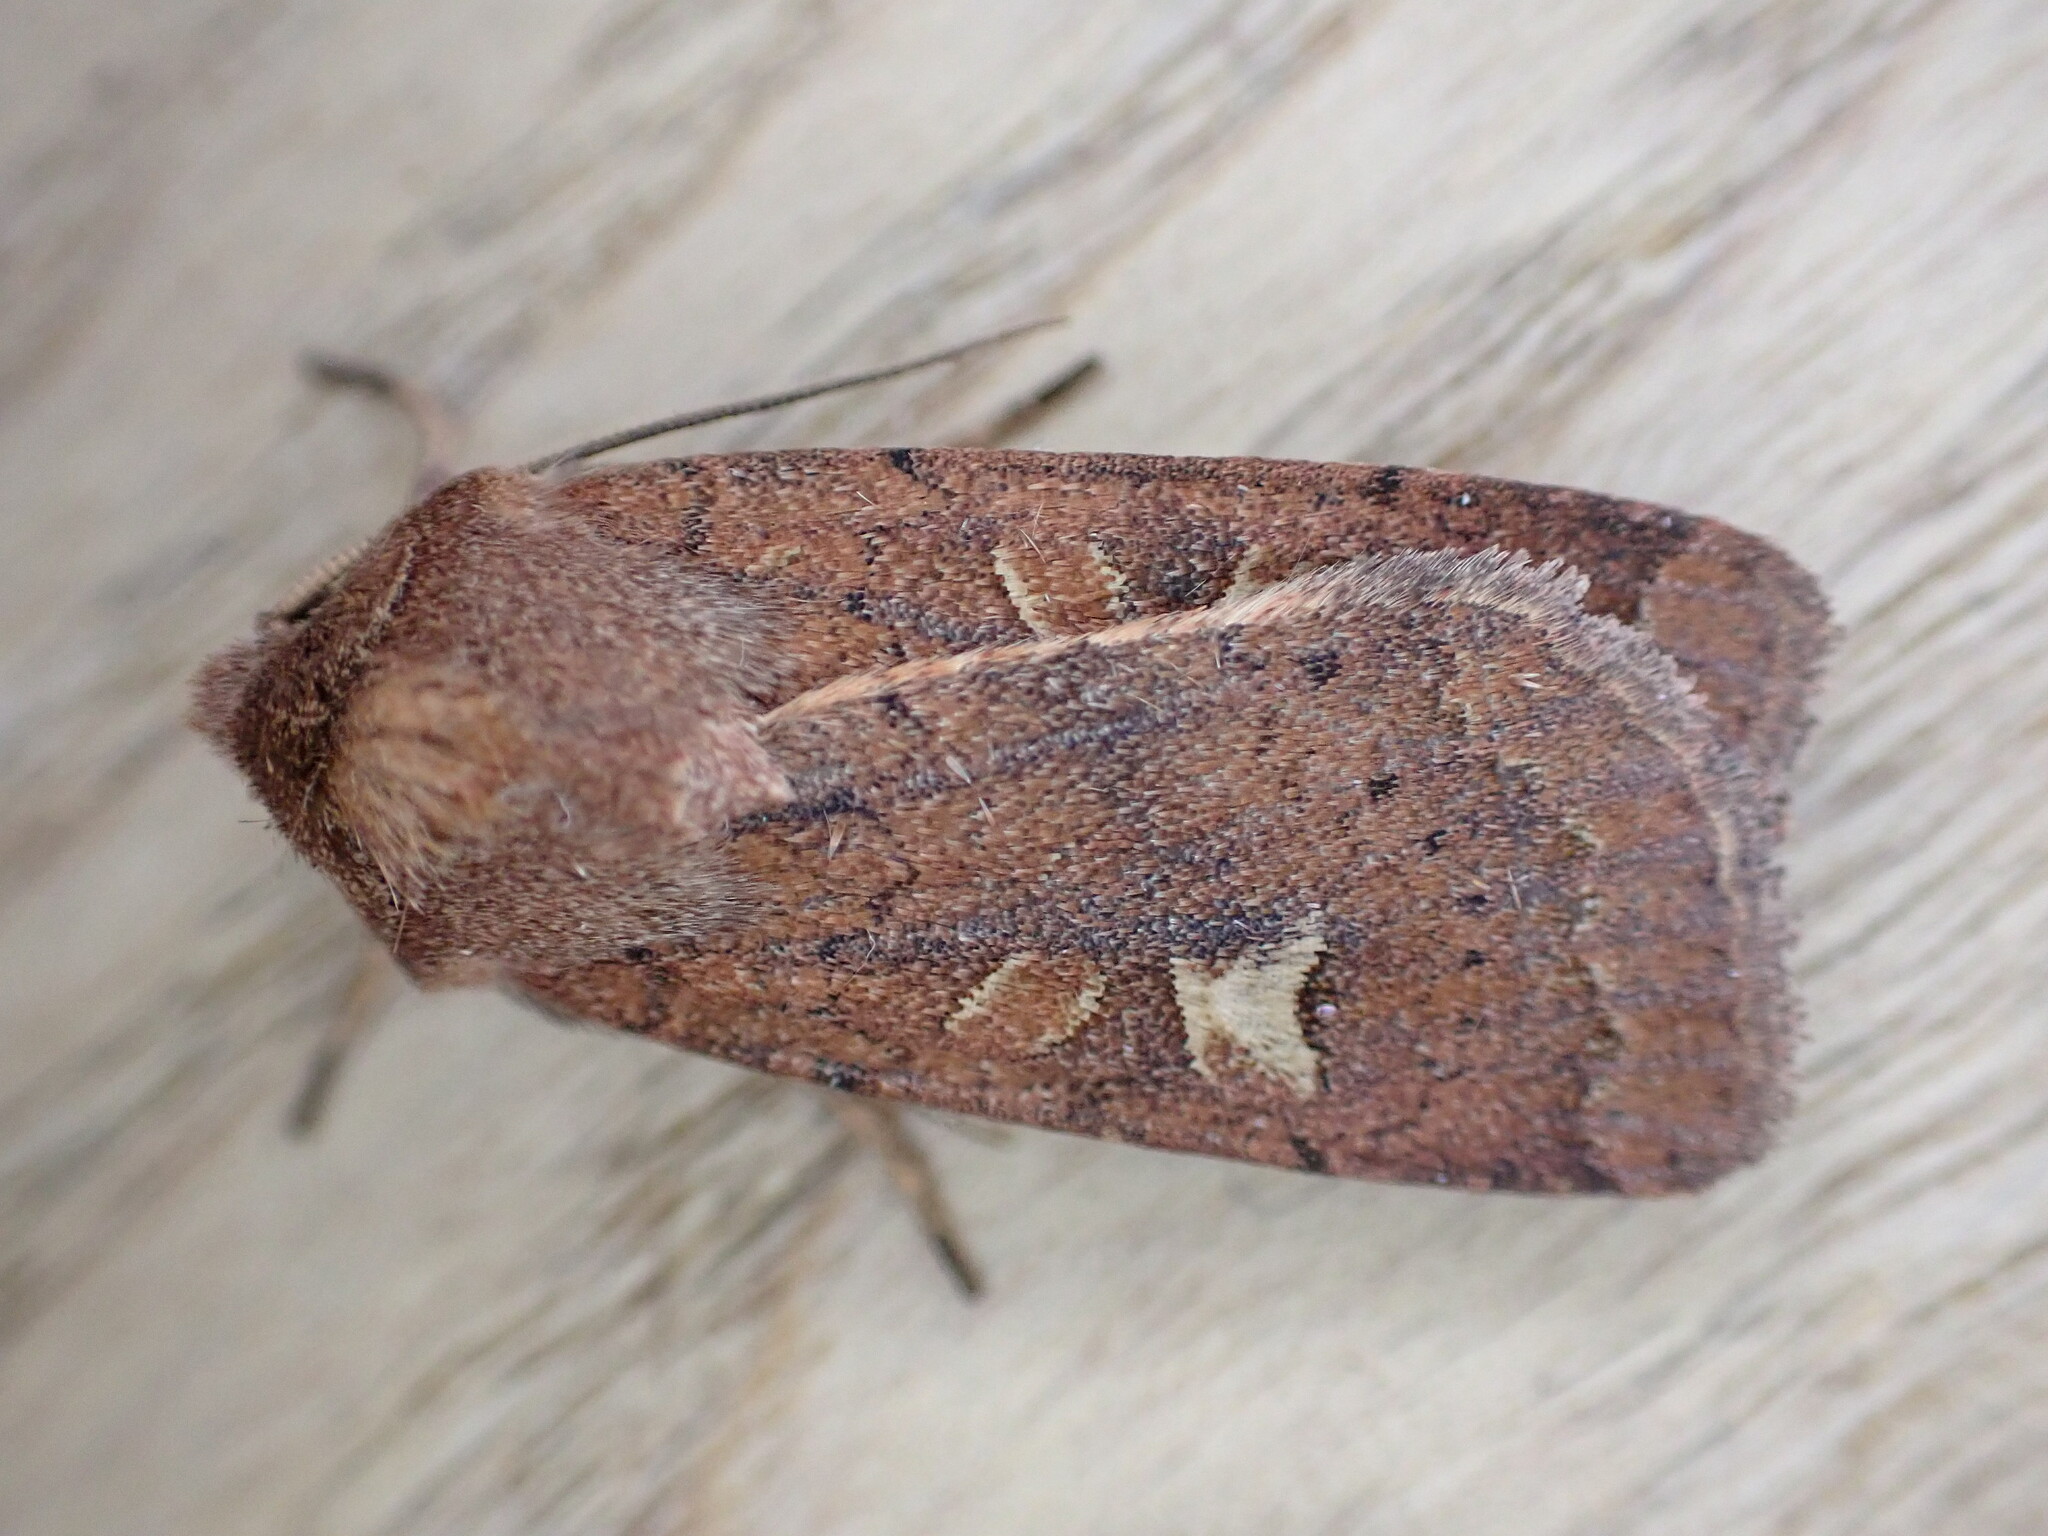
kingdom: Animalia
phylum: Arthropoda
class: Insecta
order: Lepidoptera
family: Noctuidae
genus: Xestia
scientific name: Xestia xanthographa
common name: Square-spot rustic
